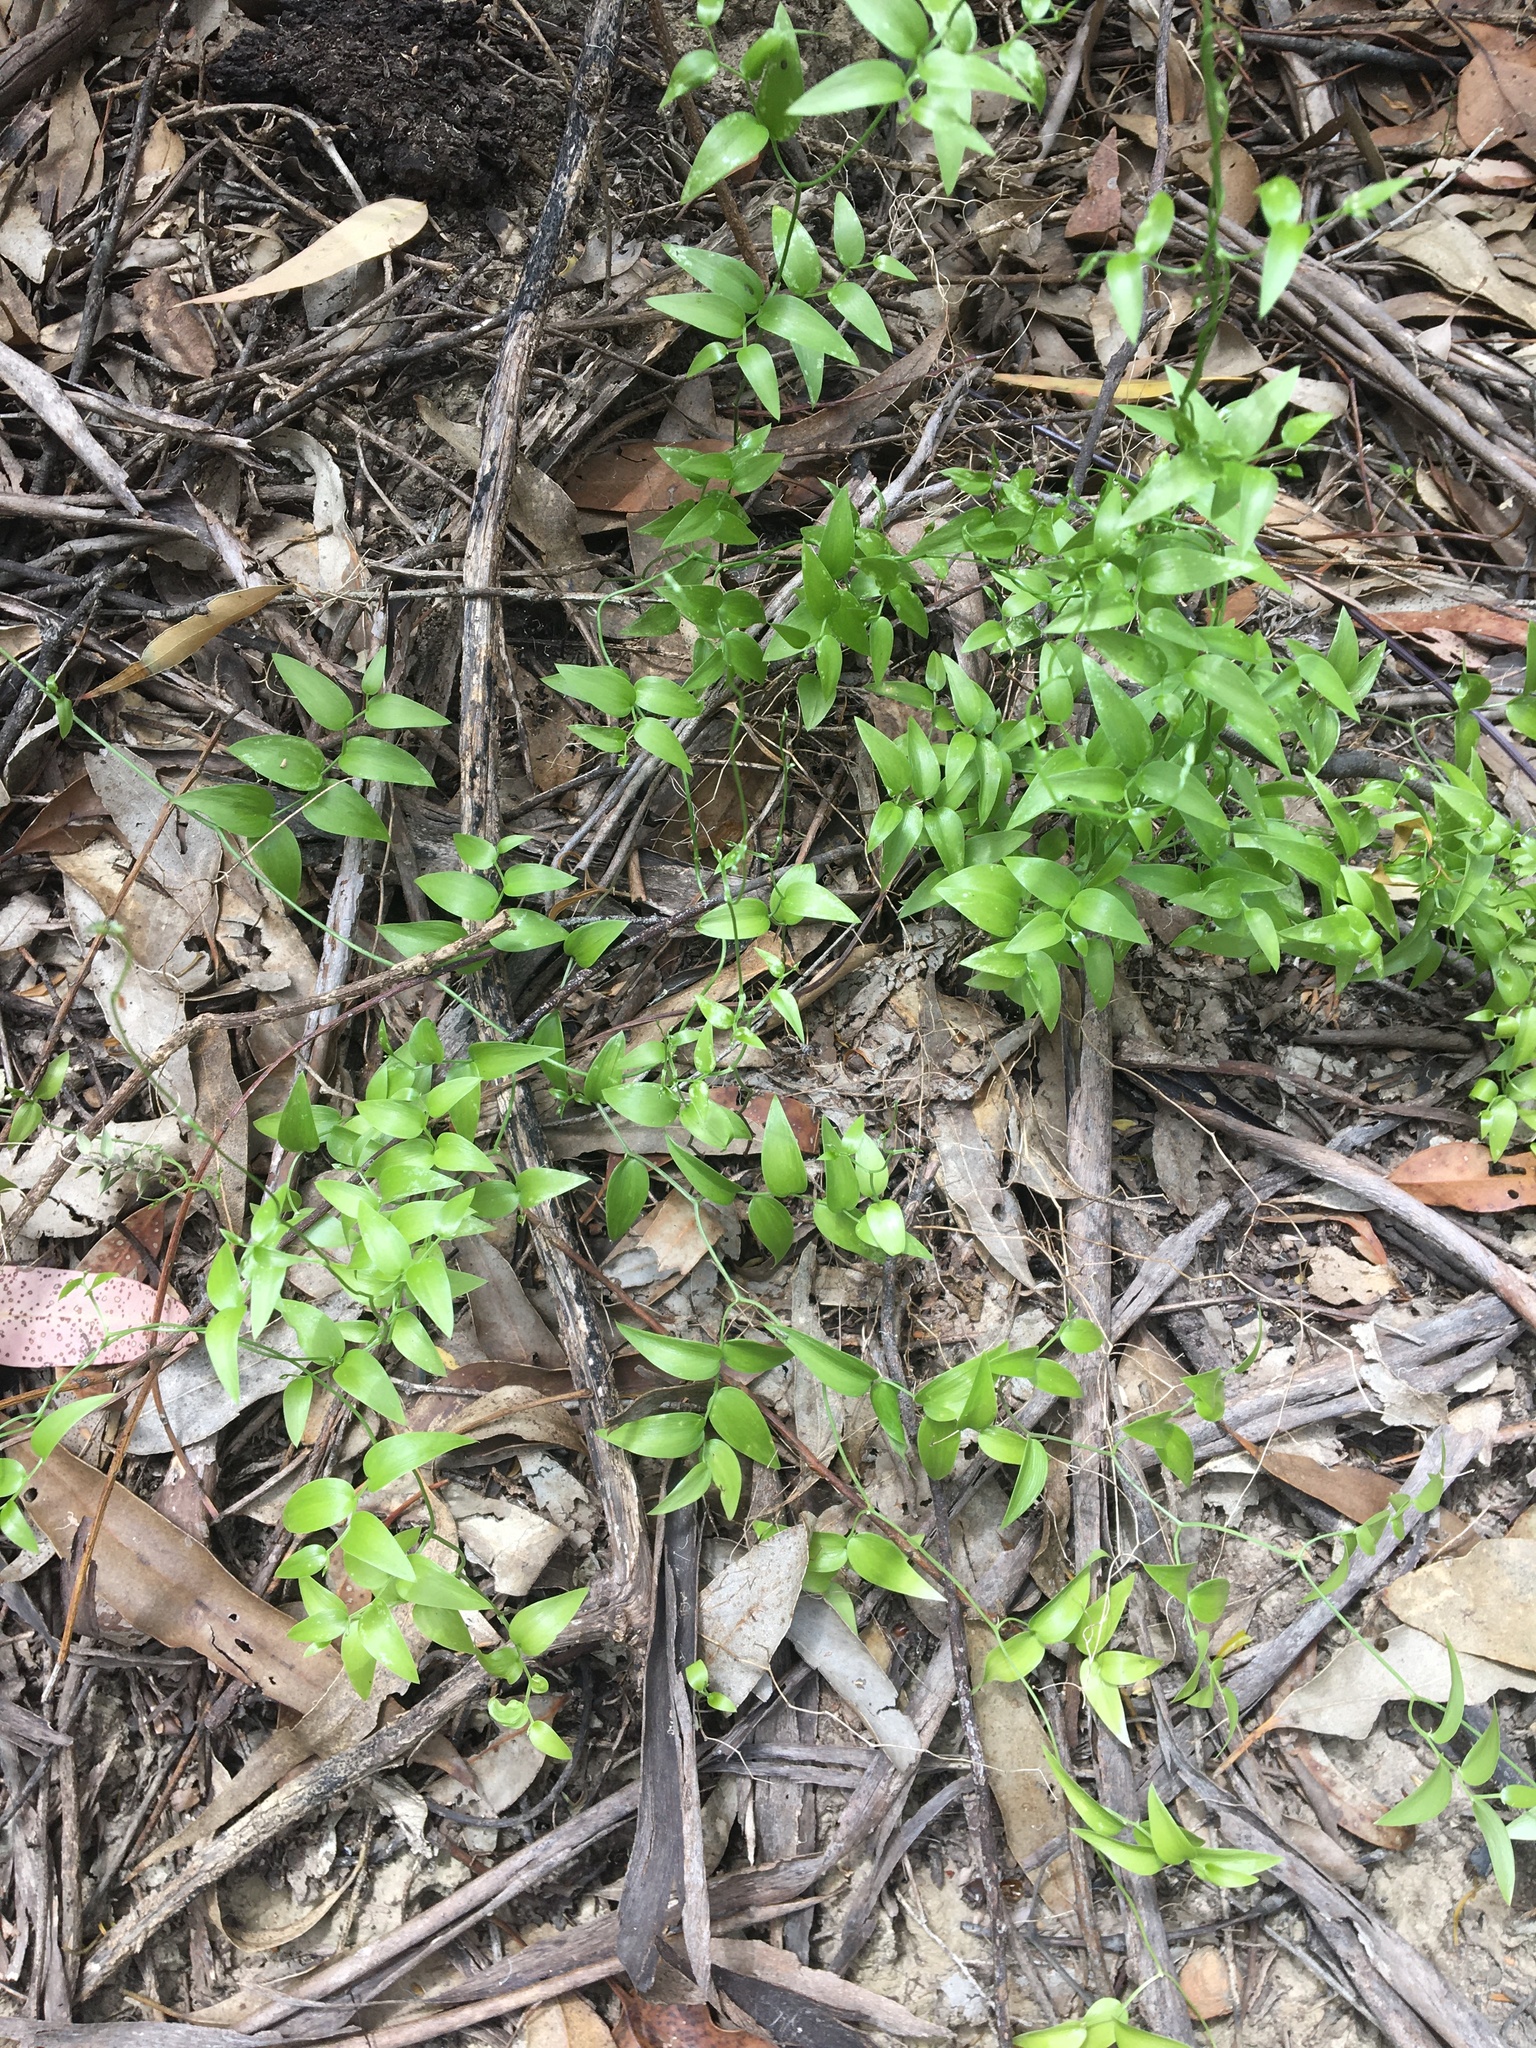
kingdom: Plantae
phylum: Tracheophyta
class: Liliopsida
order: Asparagales
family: Asparagaceae
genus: Asparagus
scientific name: Asparagus asparagoides
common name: African asparagus fern
